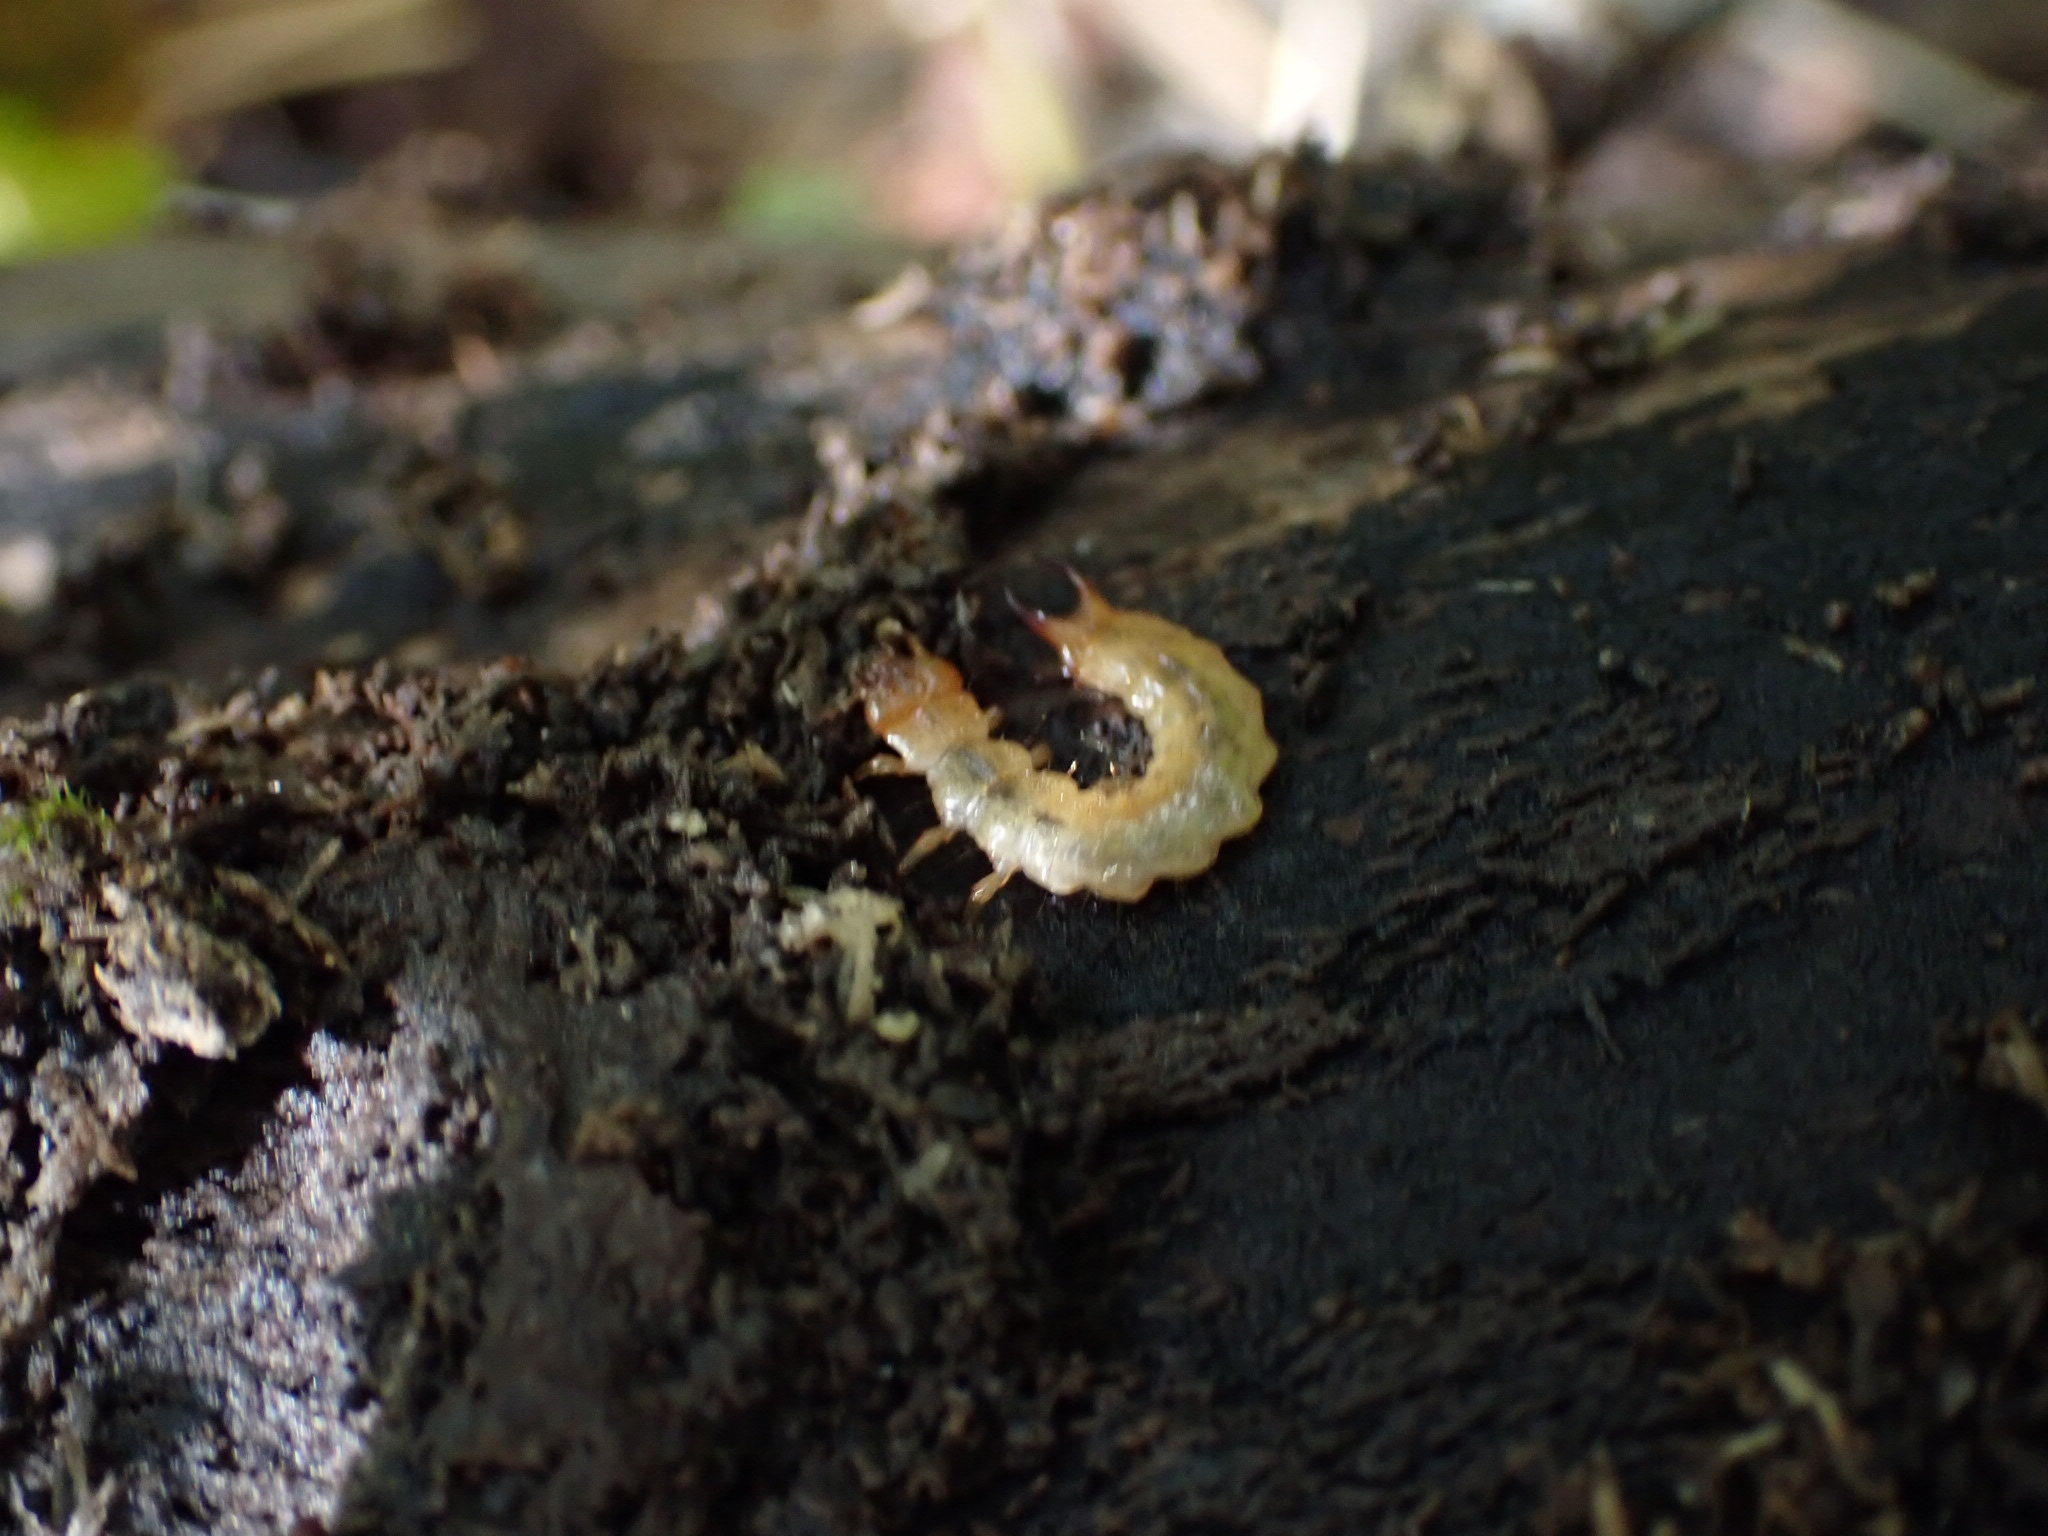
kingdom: Animalia
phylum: Arthropoda
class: Insecta
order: Coleoptera
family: Pyrochroidae
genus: Schizotus
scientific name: Schizotus pectinicornis
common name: Scarce cardinal beetle
